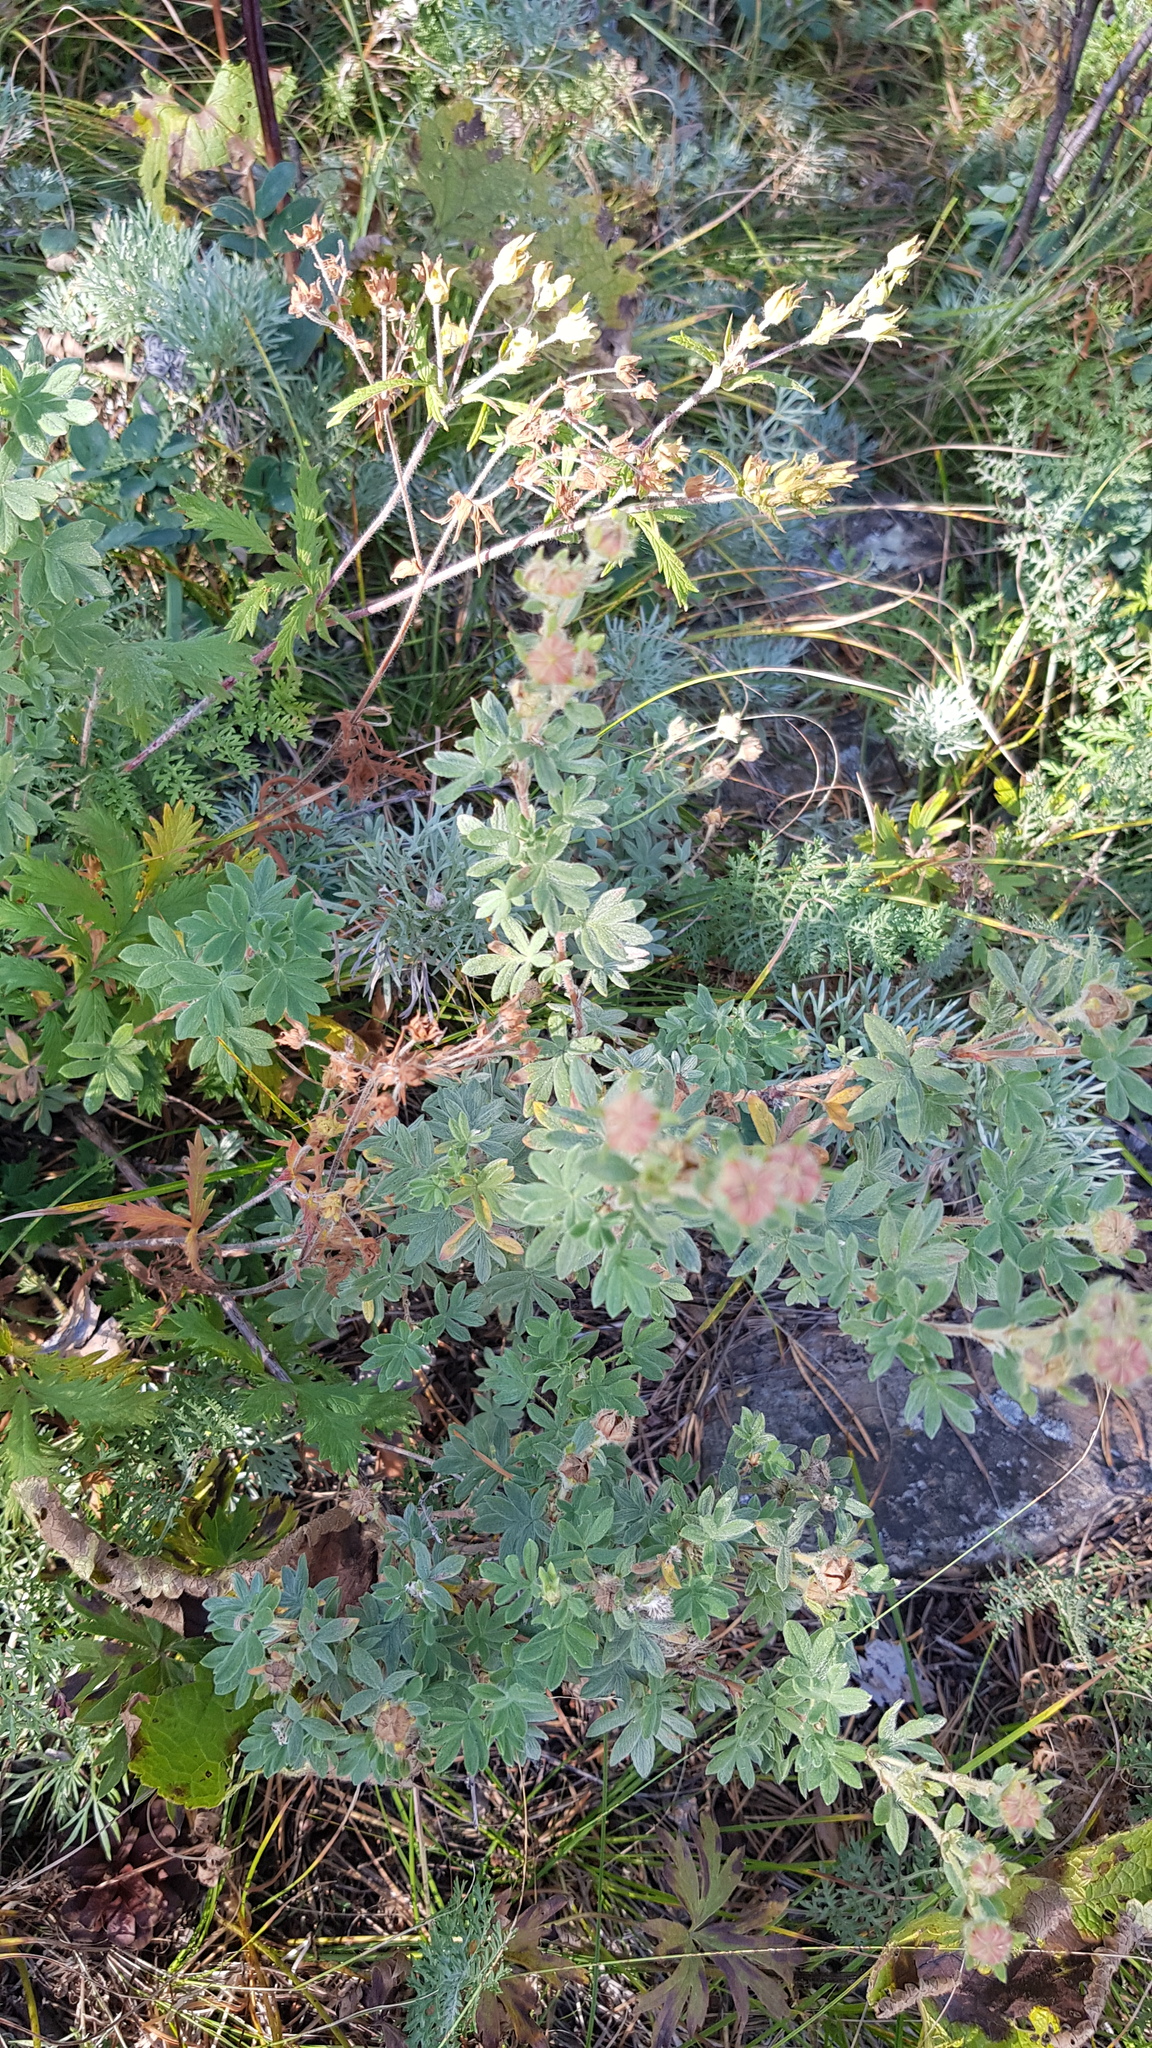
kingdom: Plantae
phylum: Tracheophyta
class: Magnoliopsida
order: Rosales
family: Rosaceae
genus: Dasiphora
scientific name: Dasiphora fruticosa
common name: Shrubby cinquefoil
